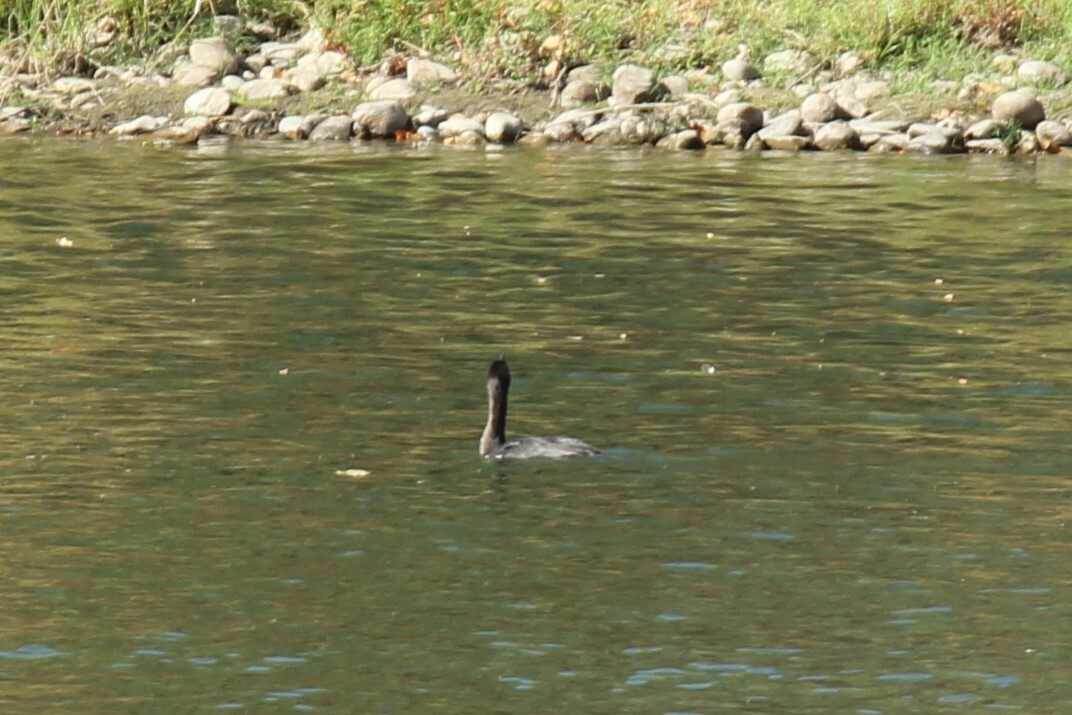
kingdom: Animalia
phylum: Chordata
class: Aves
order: Suliformes
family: Phalacrocoracidae
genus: Phalacrocorax
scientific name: Phalacrocorax auritus
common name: Double-crested cormorant
